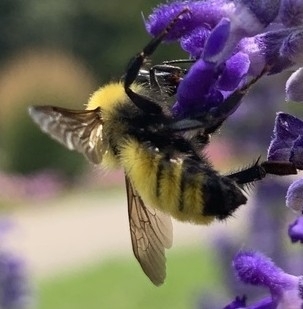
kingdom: Animalia
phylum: Arthropoda
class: Insecta
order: Hymenoptera
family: Apidae
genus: Bombus
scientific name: Bombus fervidus
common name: Yellow bumble bee
